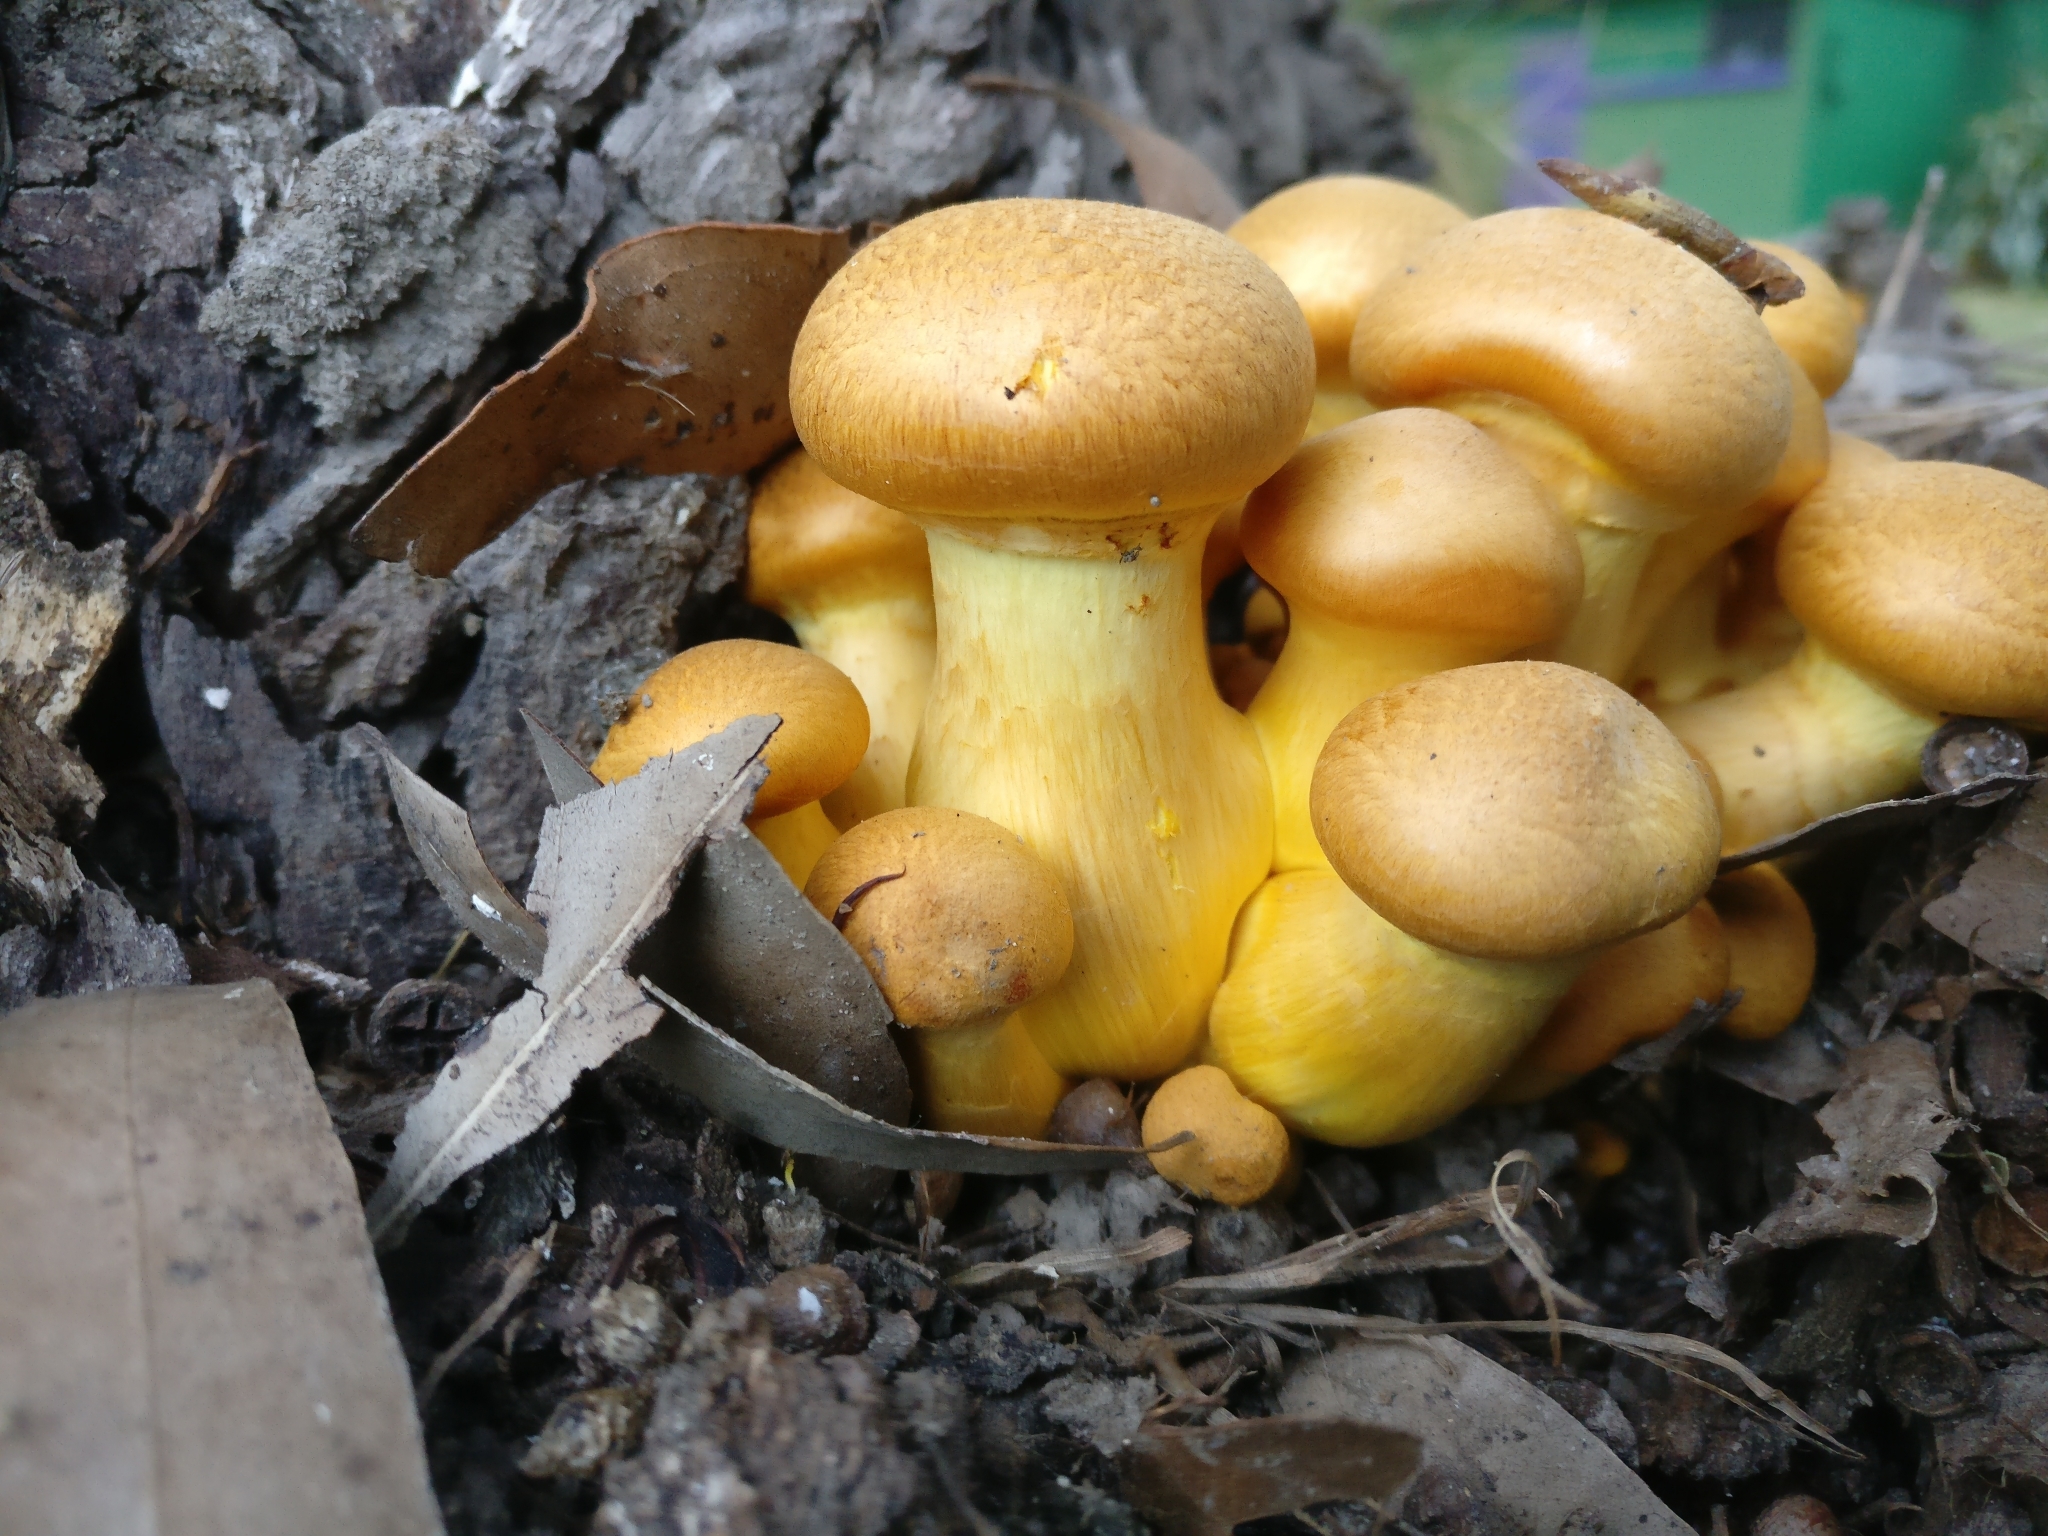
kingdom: Fungi
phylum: Basidiomycota
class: Agaricomycetes
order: Agaricales
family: Hymenogastraceae
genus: Gymnopilus
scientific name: Gymnopilus junonius
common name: Spectacular rustgill
